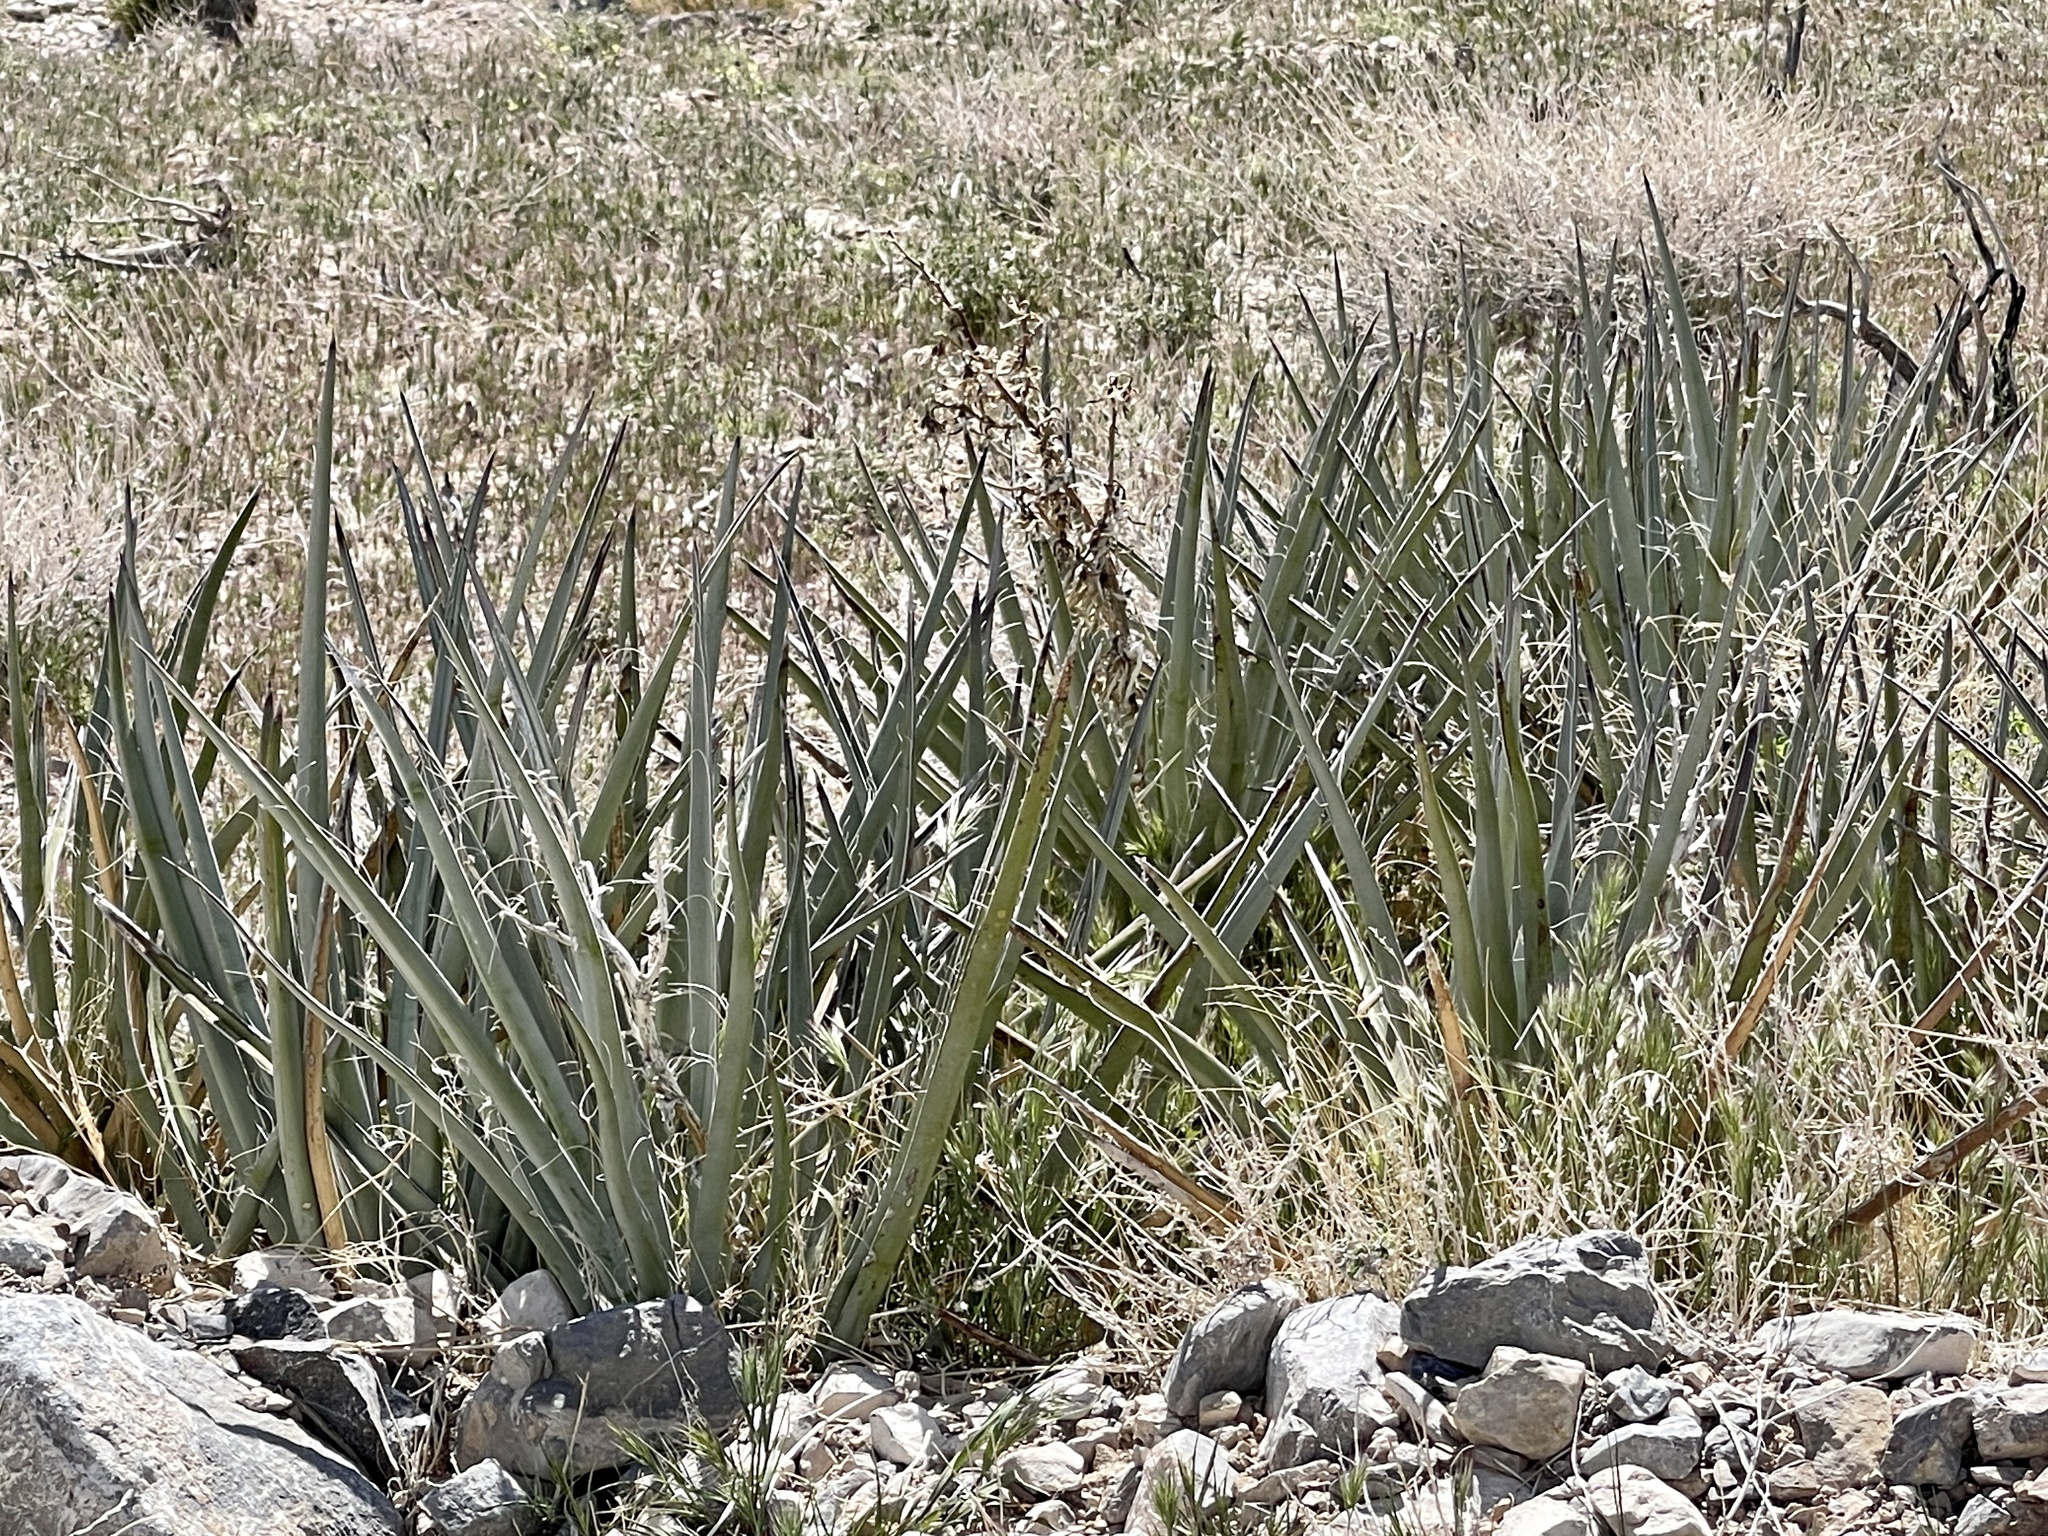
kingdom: Plantae
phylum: Tracheophyta
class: Liliopsida
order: Asparagales
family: Asparagaceae
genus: Yucca
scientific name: Yucca baccata
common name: Banana yucca
